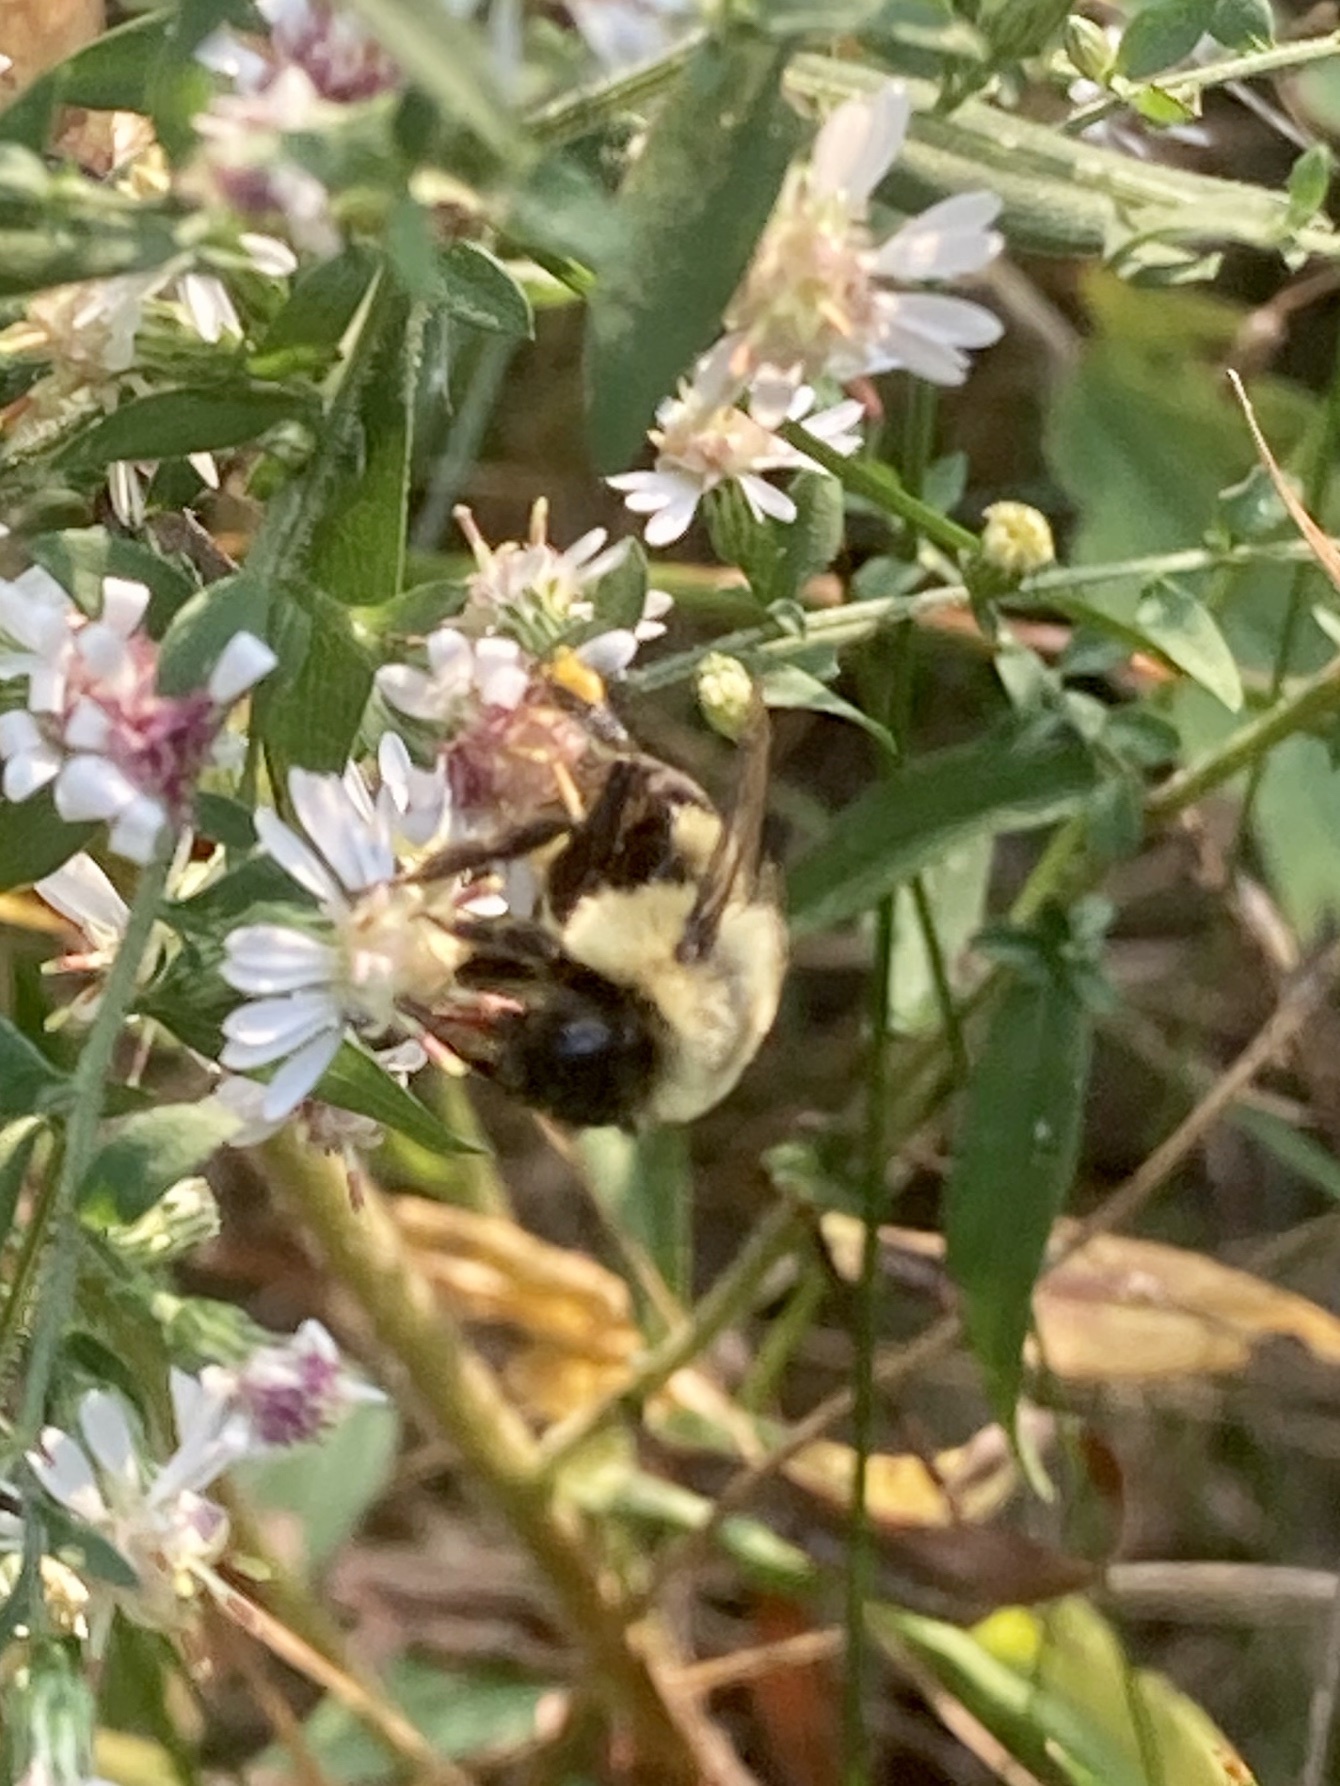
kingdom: Animalia
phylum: Arthropoda
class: Insecta
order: Hymenoptera
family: Apidae
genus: Bombus
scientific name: Bombus impatiens
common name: Common eastern bumble bee
